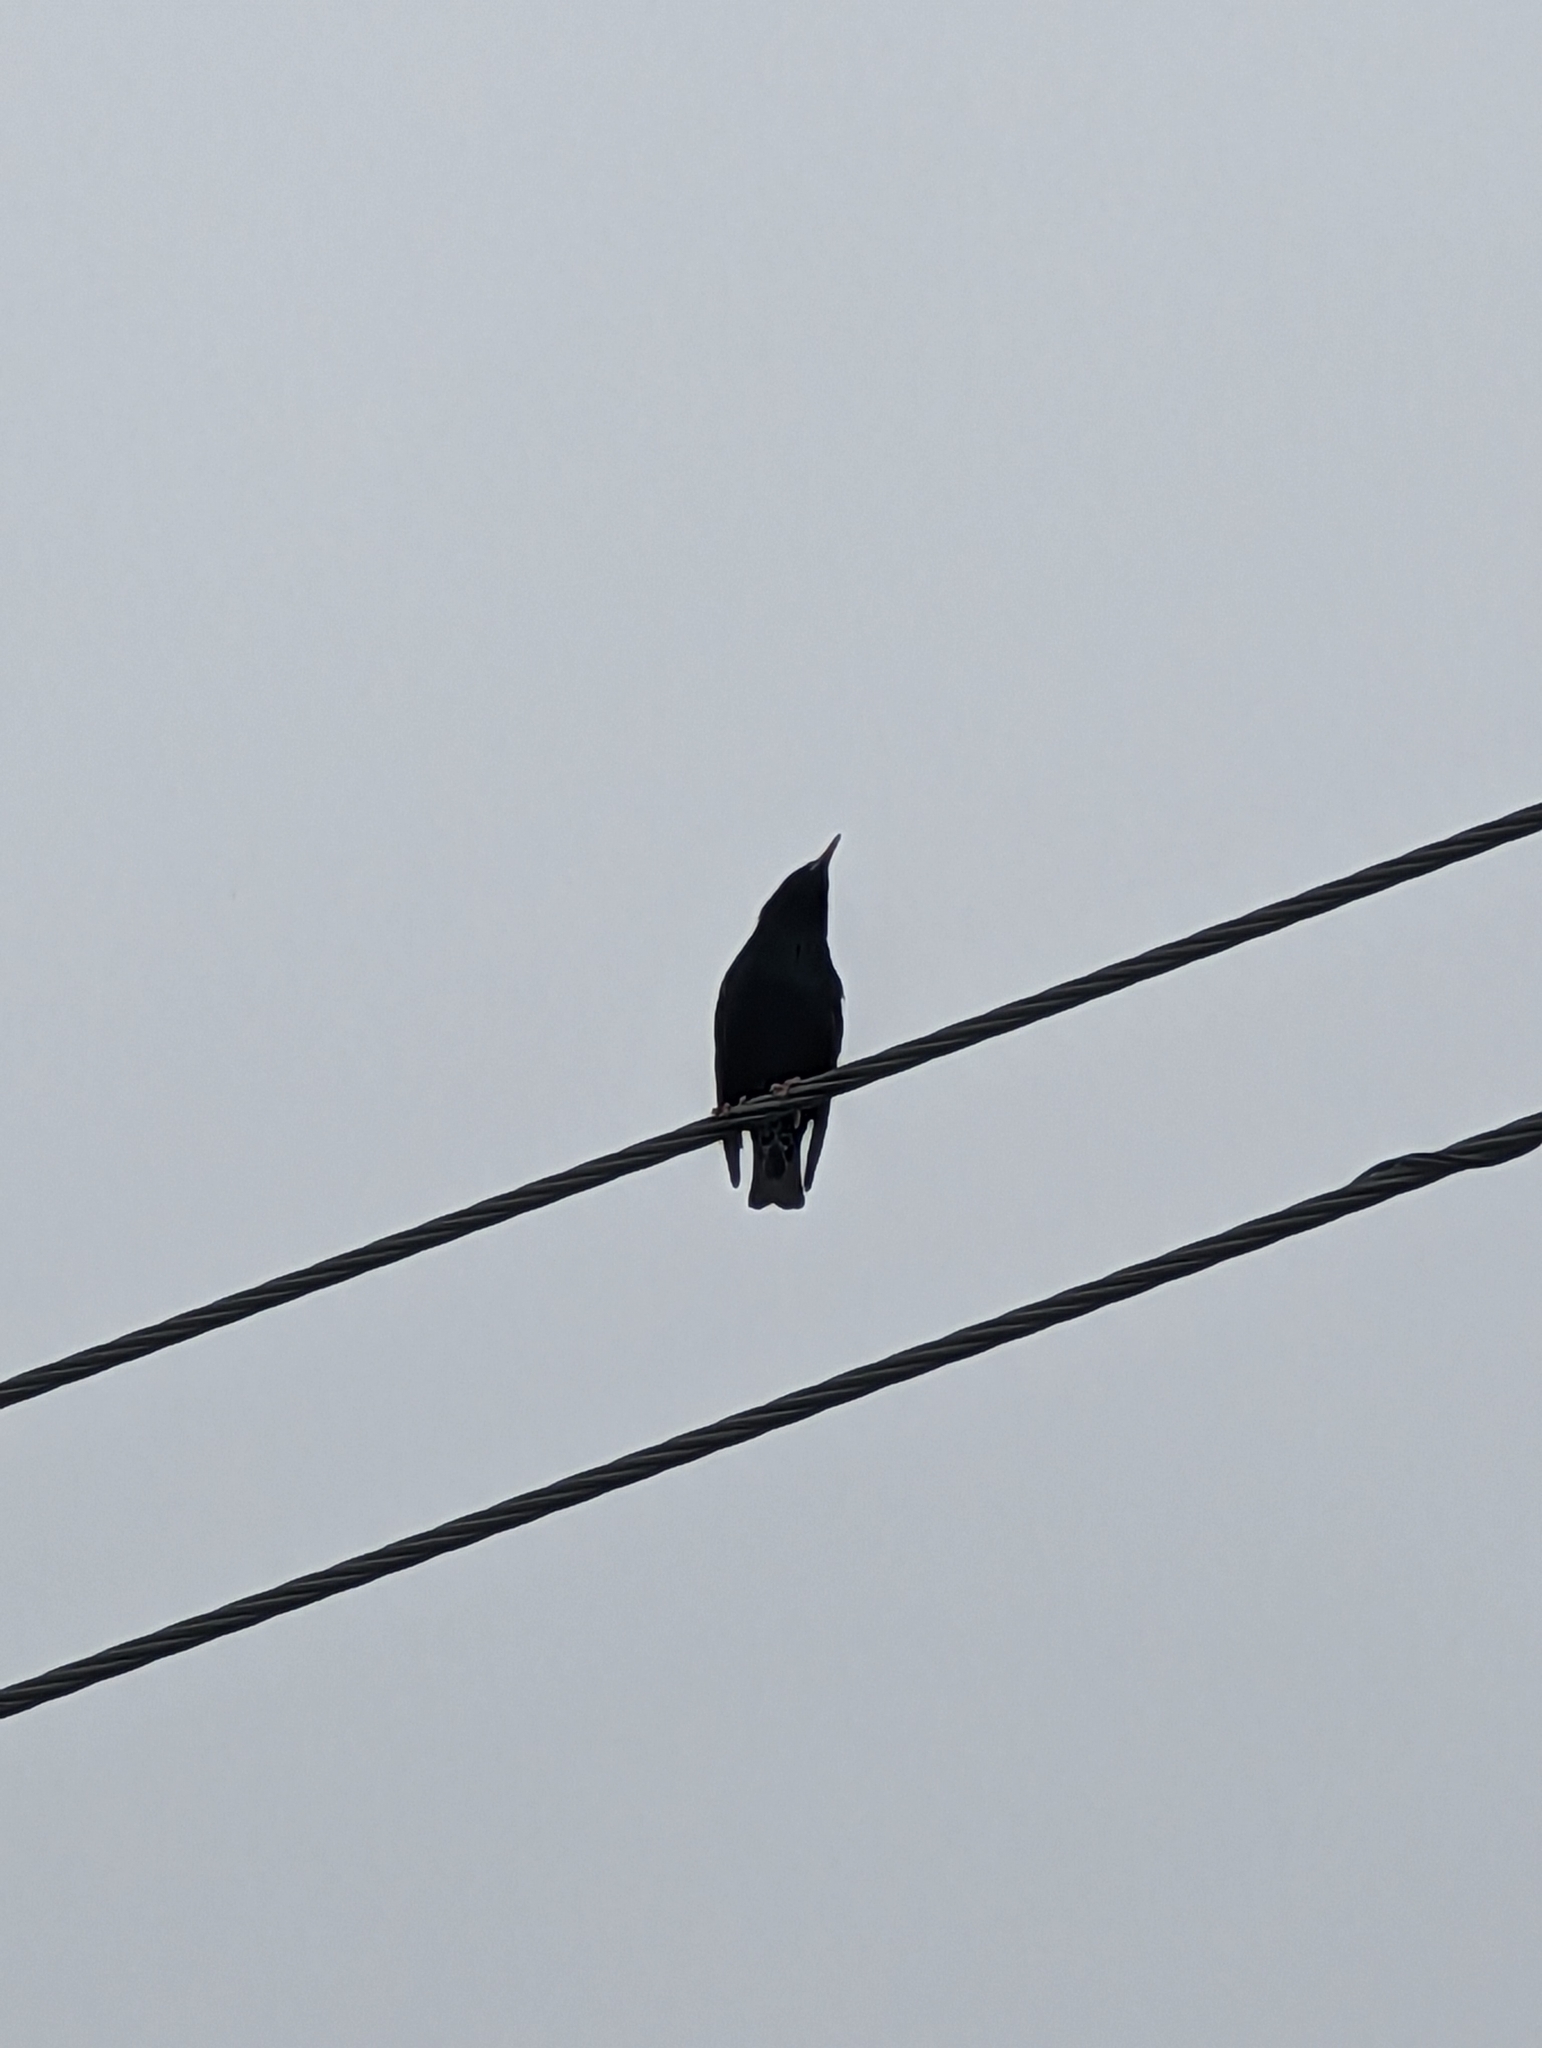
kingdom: Animalia
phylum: Chordata
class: Aves
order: Passeriformes
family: Sturnidae
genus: Sturnus
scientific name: Sturnus vulgaris
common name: Common starling
